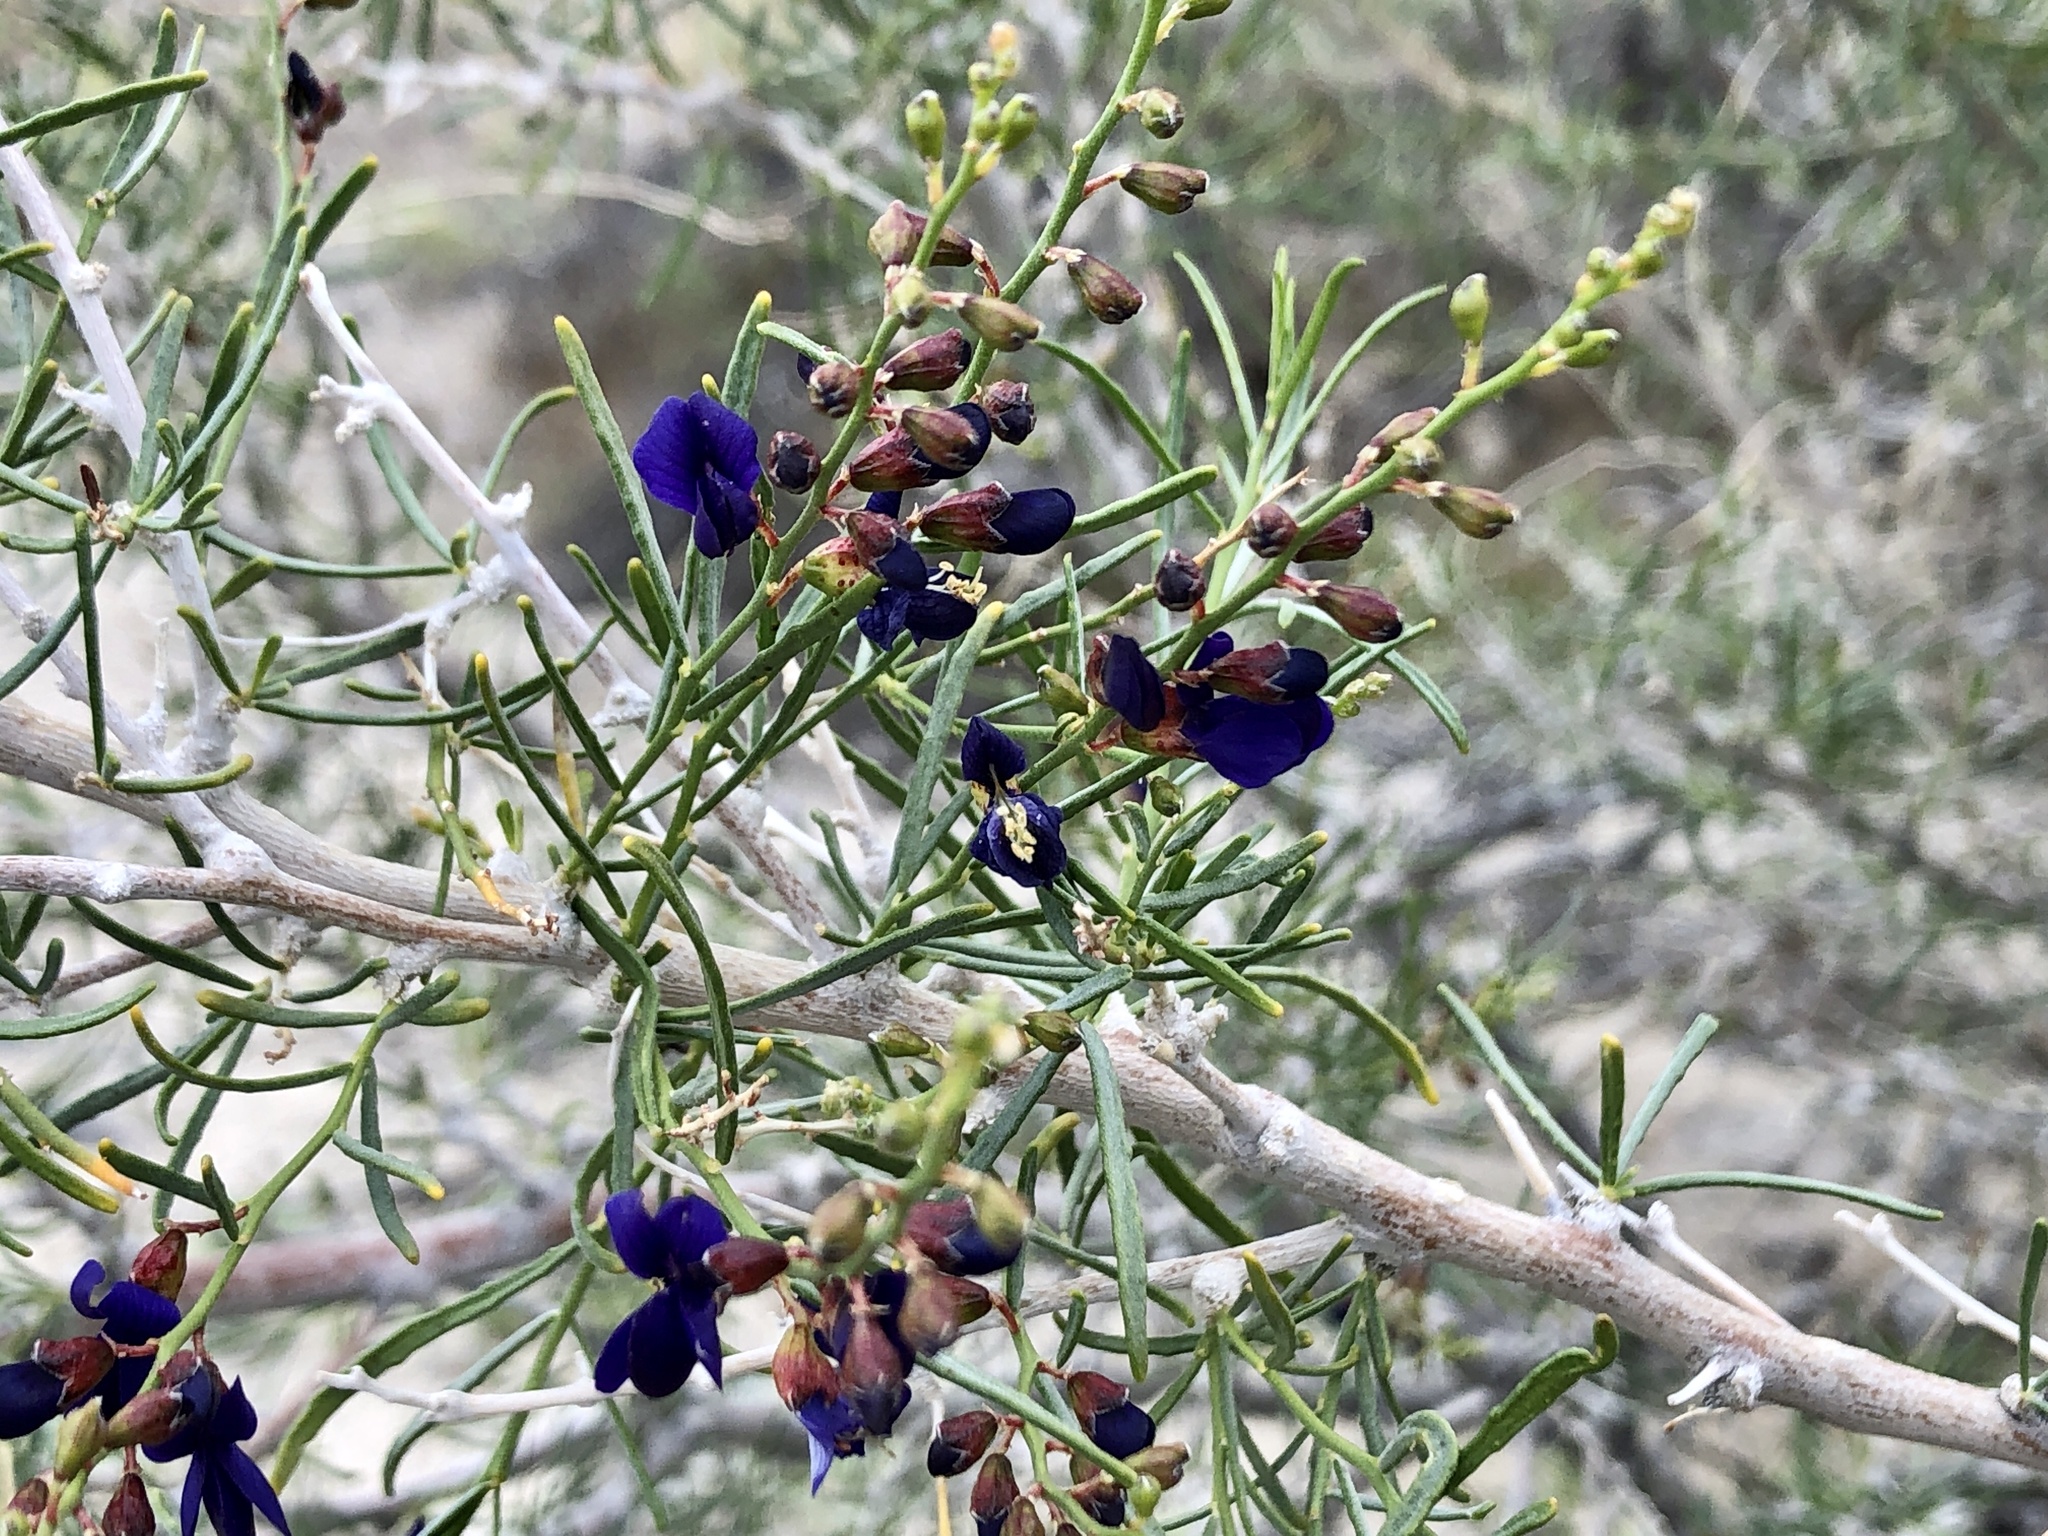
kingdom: Plantae
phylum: Tracheophyta
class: Magnoliopsida
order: Fabales
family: Fabaceae
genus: Psorothamnus
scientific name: Psorothamnus schottii
